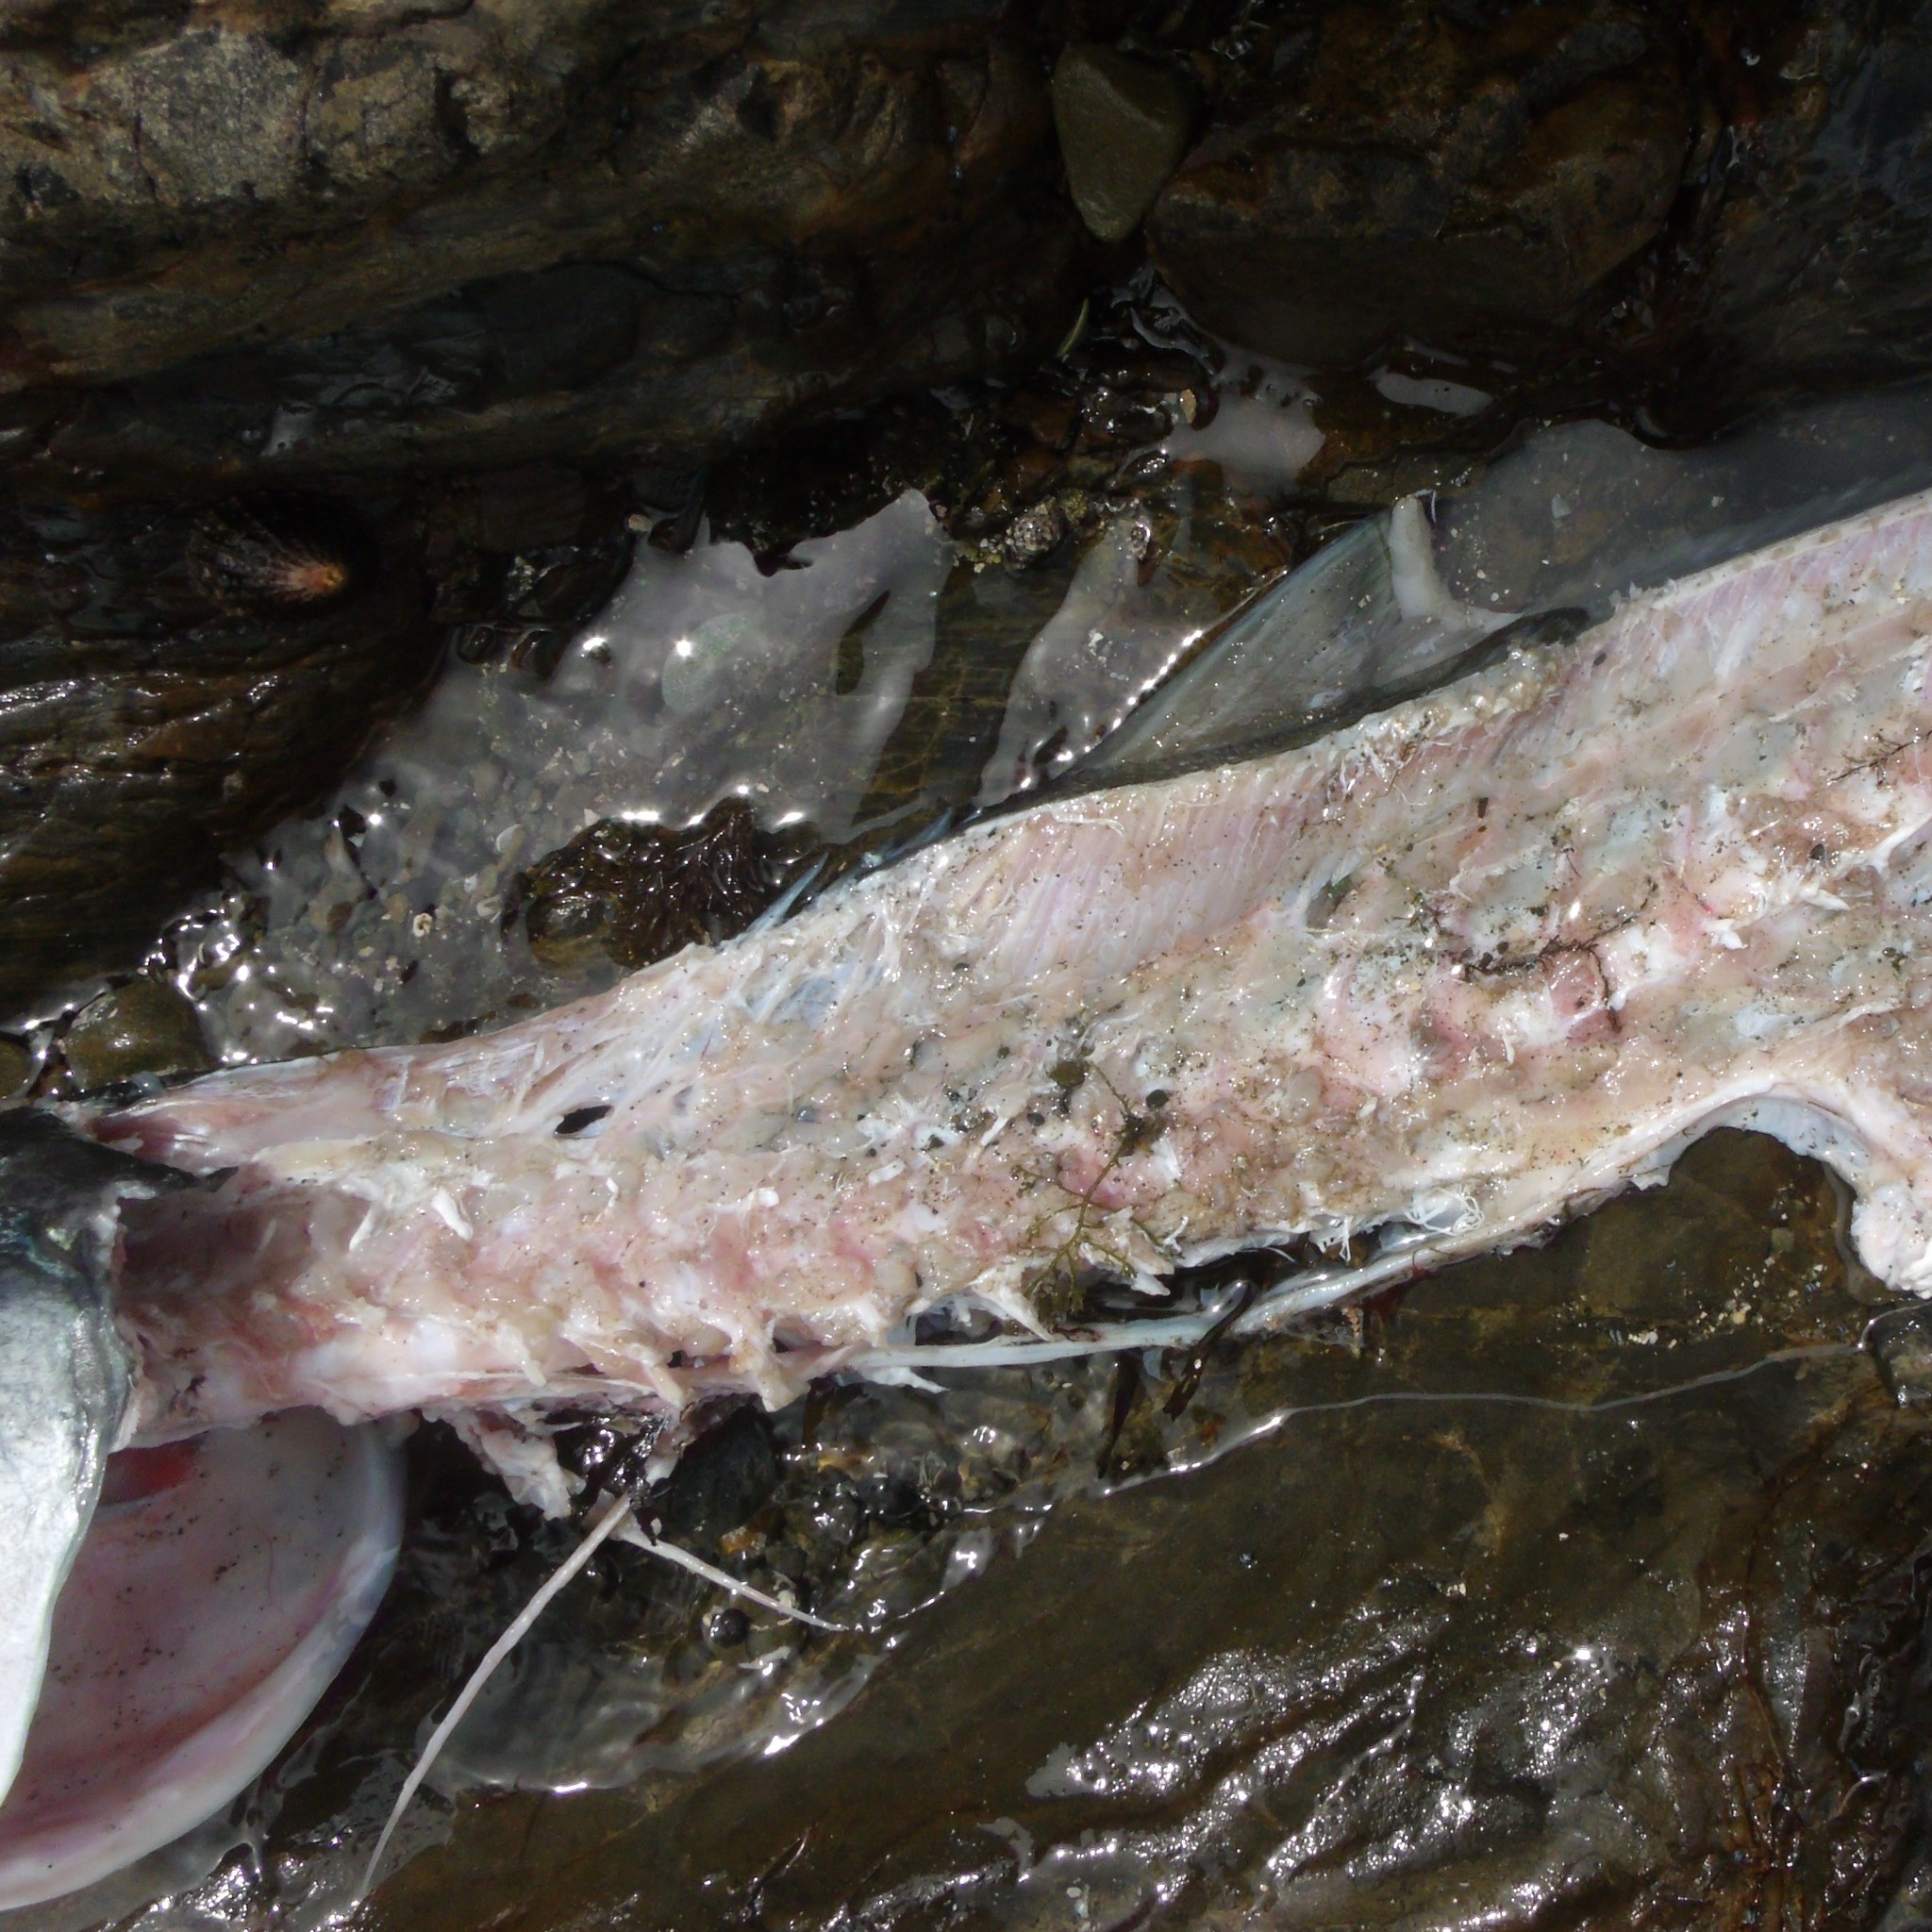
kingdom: Animalia
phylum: Chordata
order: Perciformes
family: Carangidae
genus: Seriola
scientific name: Seriola lalandi
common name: Yellowtail kingfish
